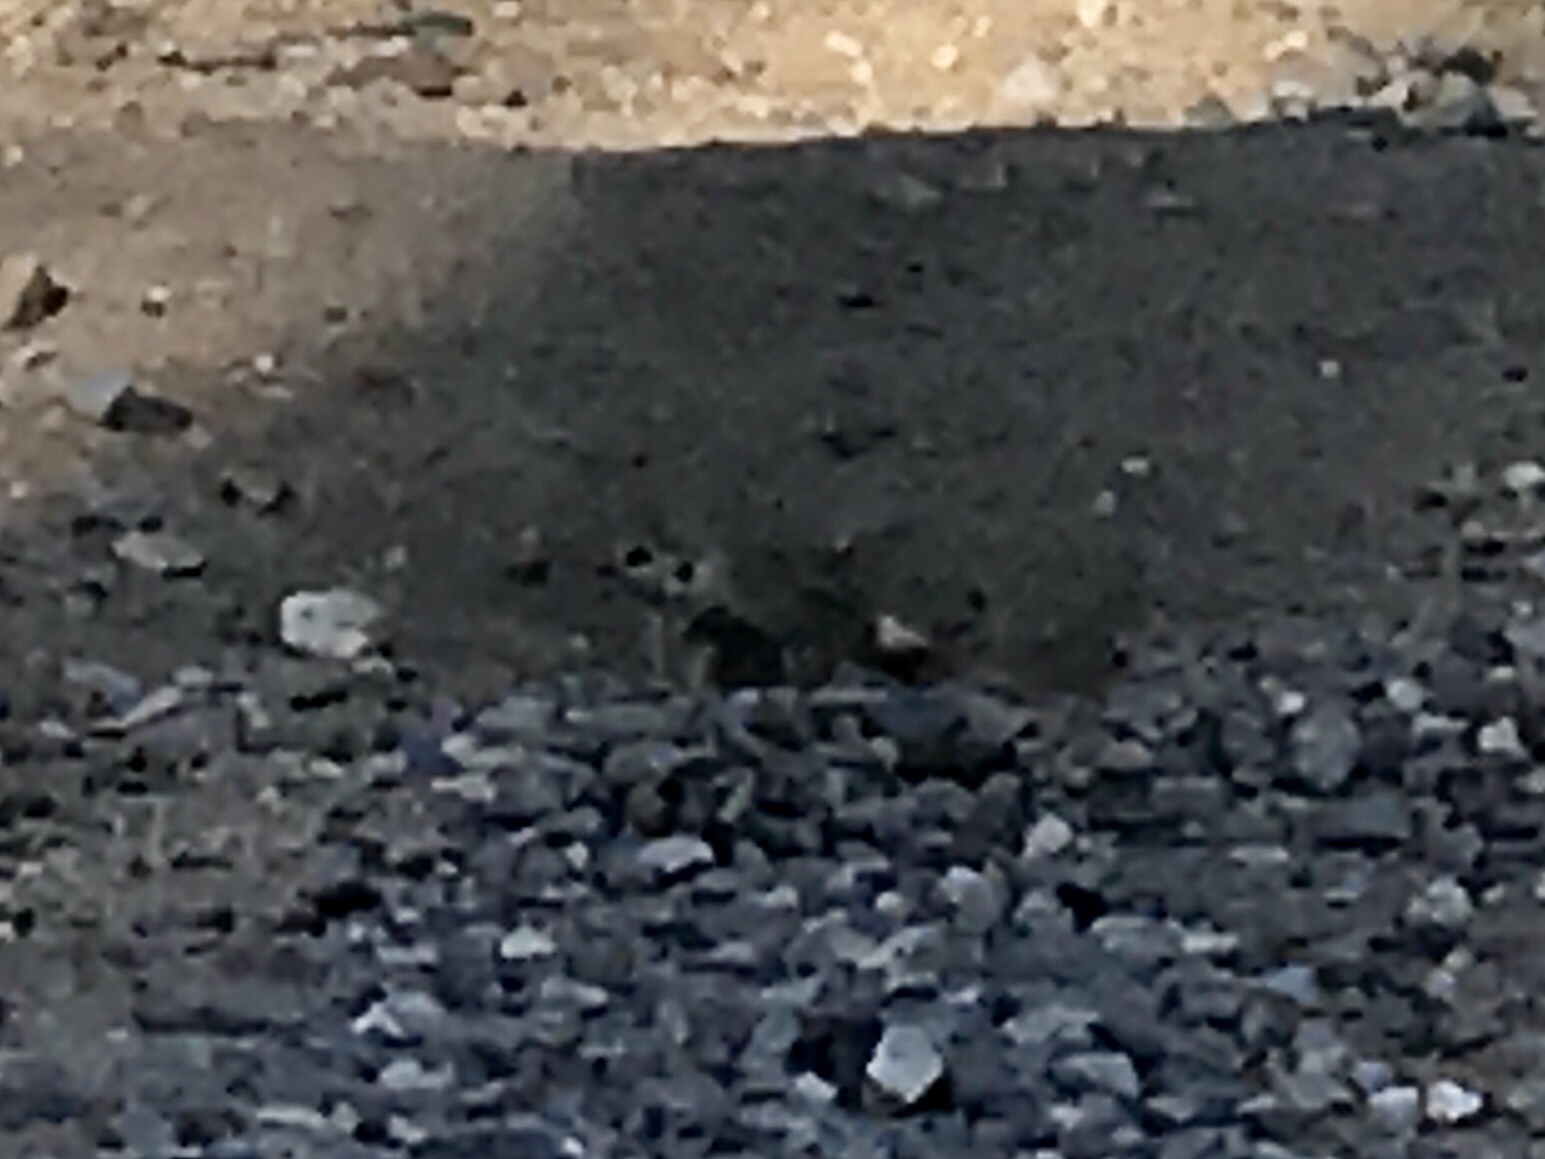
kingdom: Animalia
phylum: Chordata
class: Mammalia
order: Rodentia
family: Sciuridae
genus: Xerospermophilus
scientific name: Xerospermophilus tereticaudus
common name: Round-tailed ground squirrel
